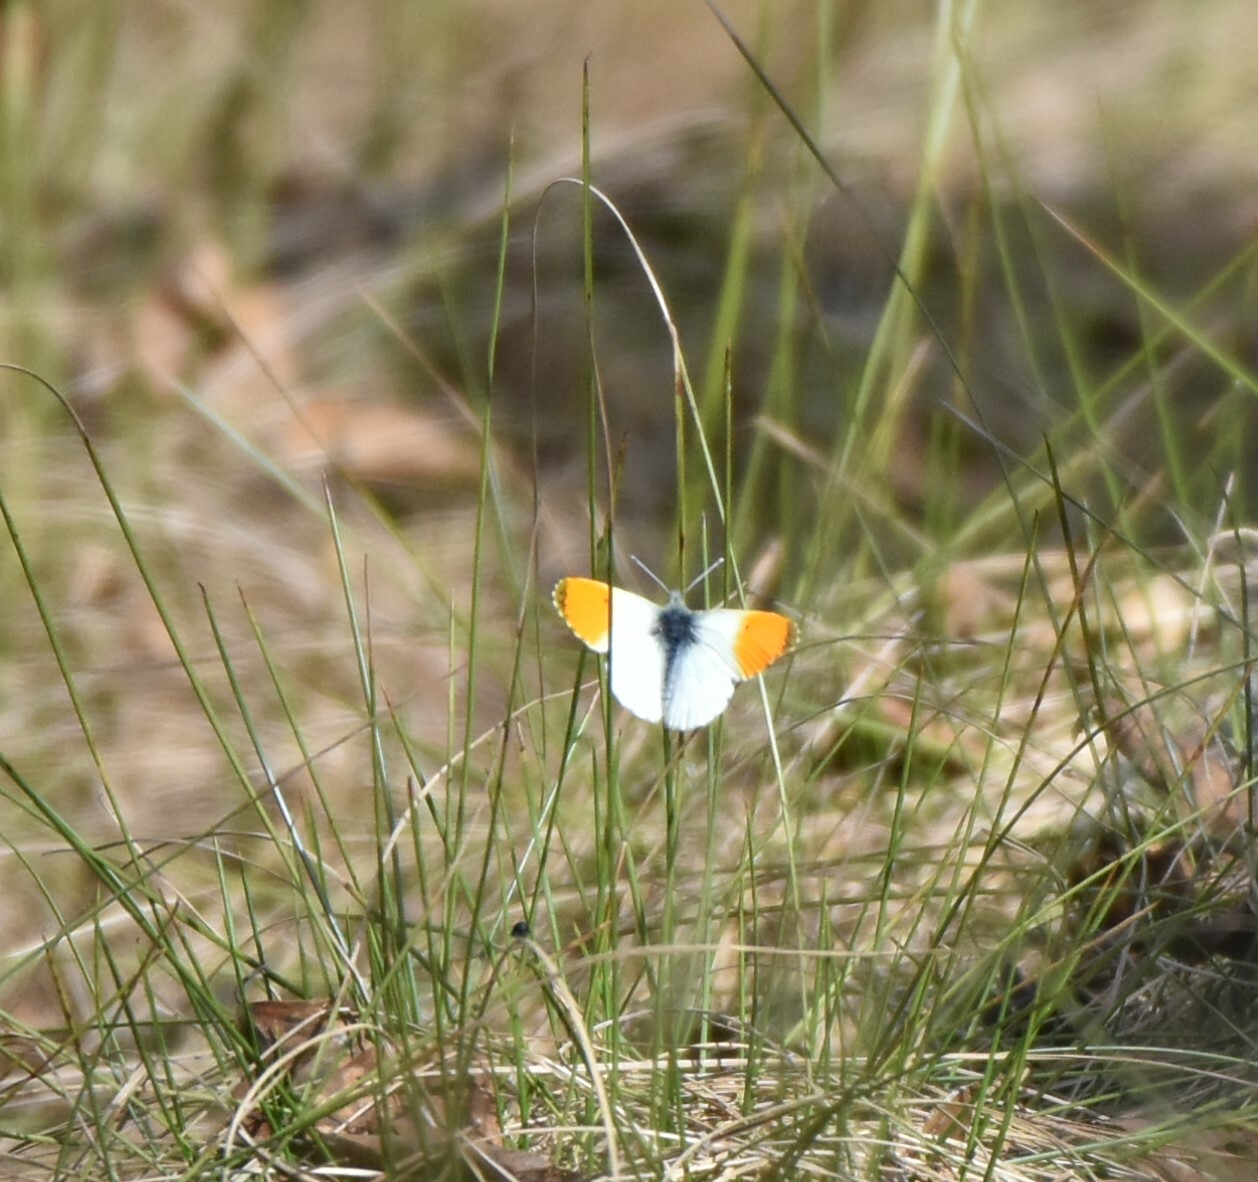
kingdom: Animalia
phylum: Arthropoda
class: Insecta
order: Lepidoptera
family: Pieridae
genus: Anthocharis
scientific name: Anthocharis cardamines
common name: Orange-tip
